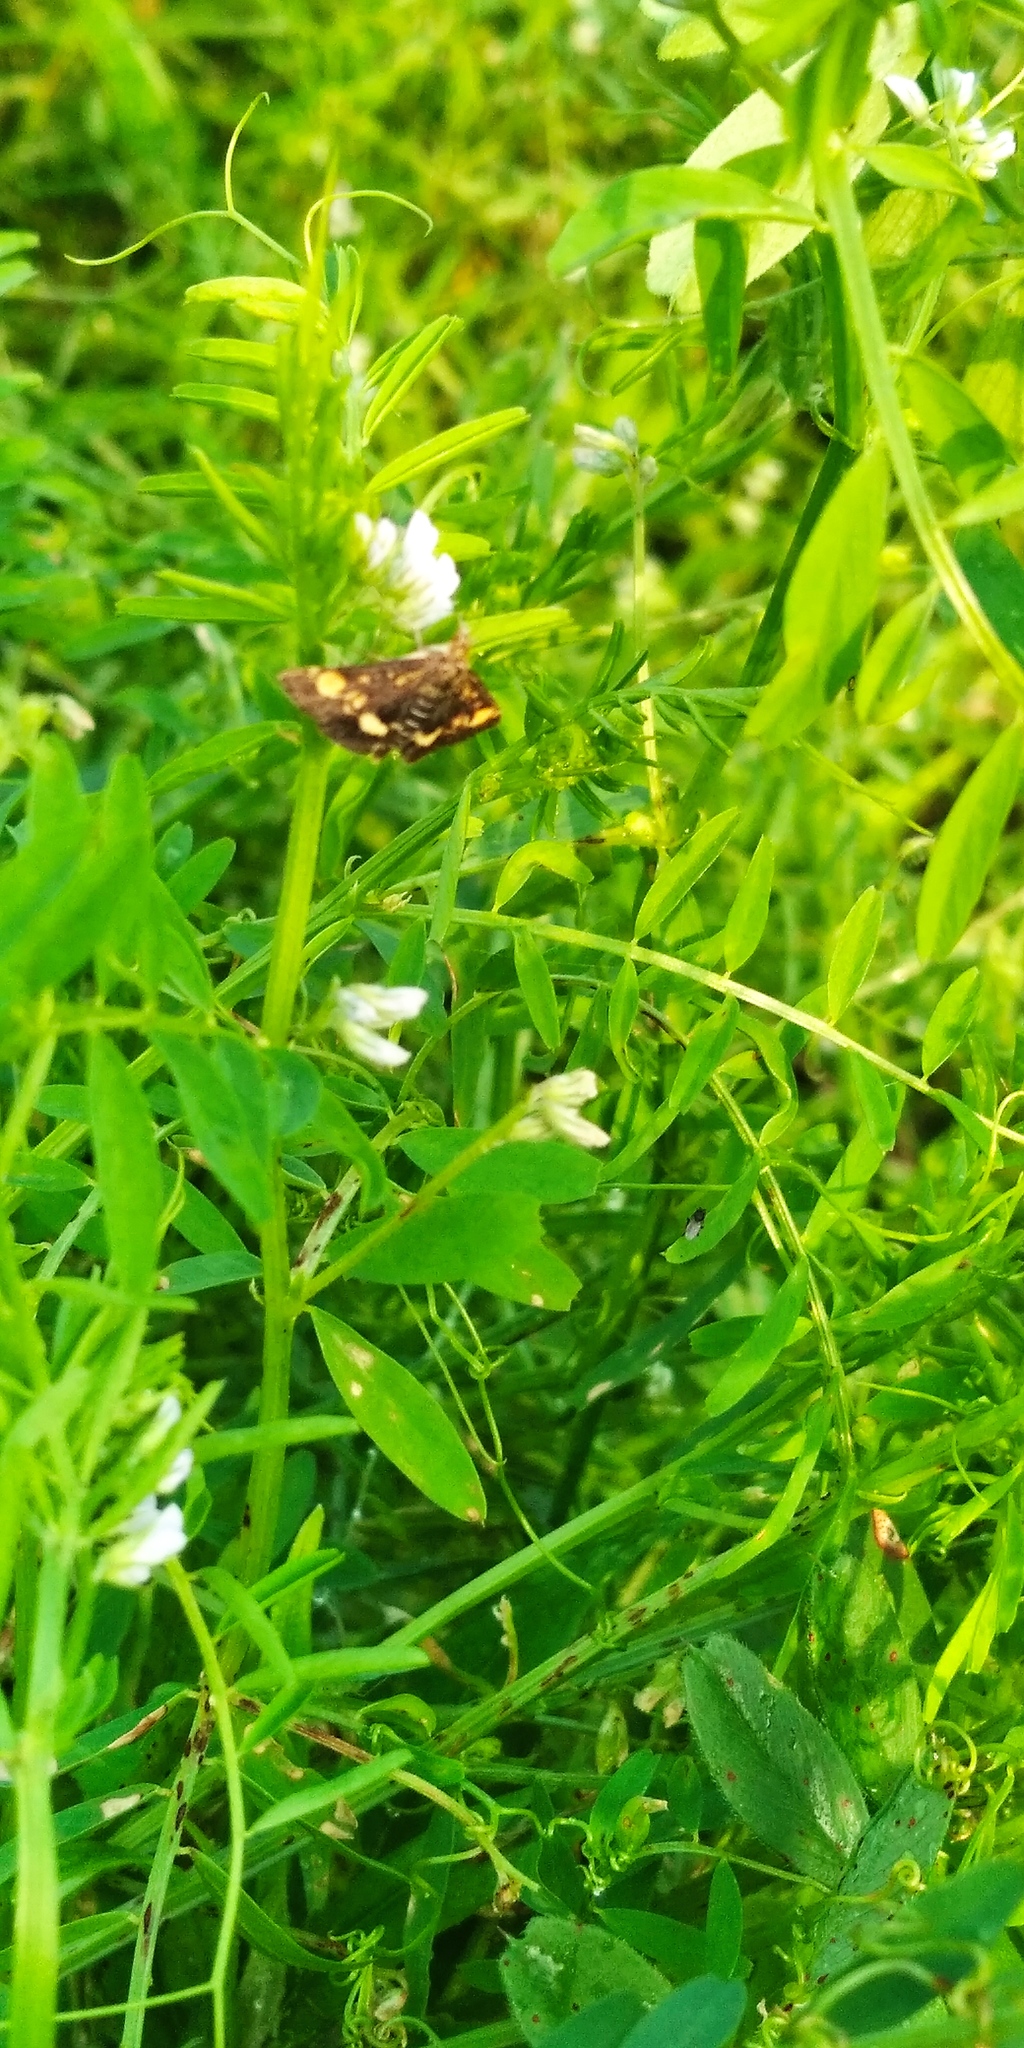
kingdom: Animalia
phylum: Arthropoda
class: Insecta
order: Lepidoptera
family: Crambidae
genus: Pyrausta
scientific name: Pyrausta aurata
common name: Small purple & gold
